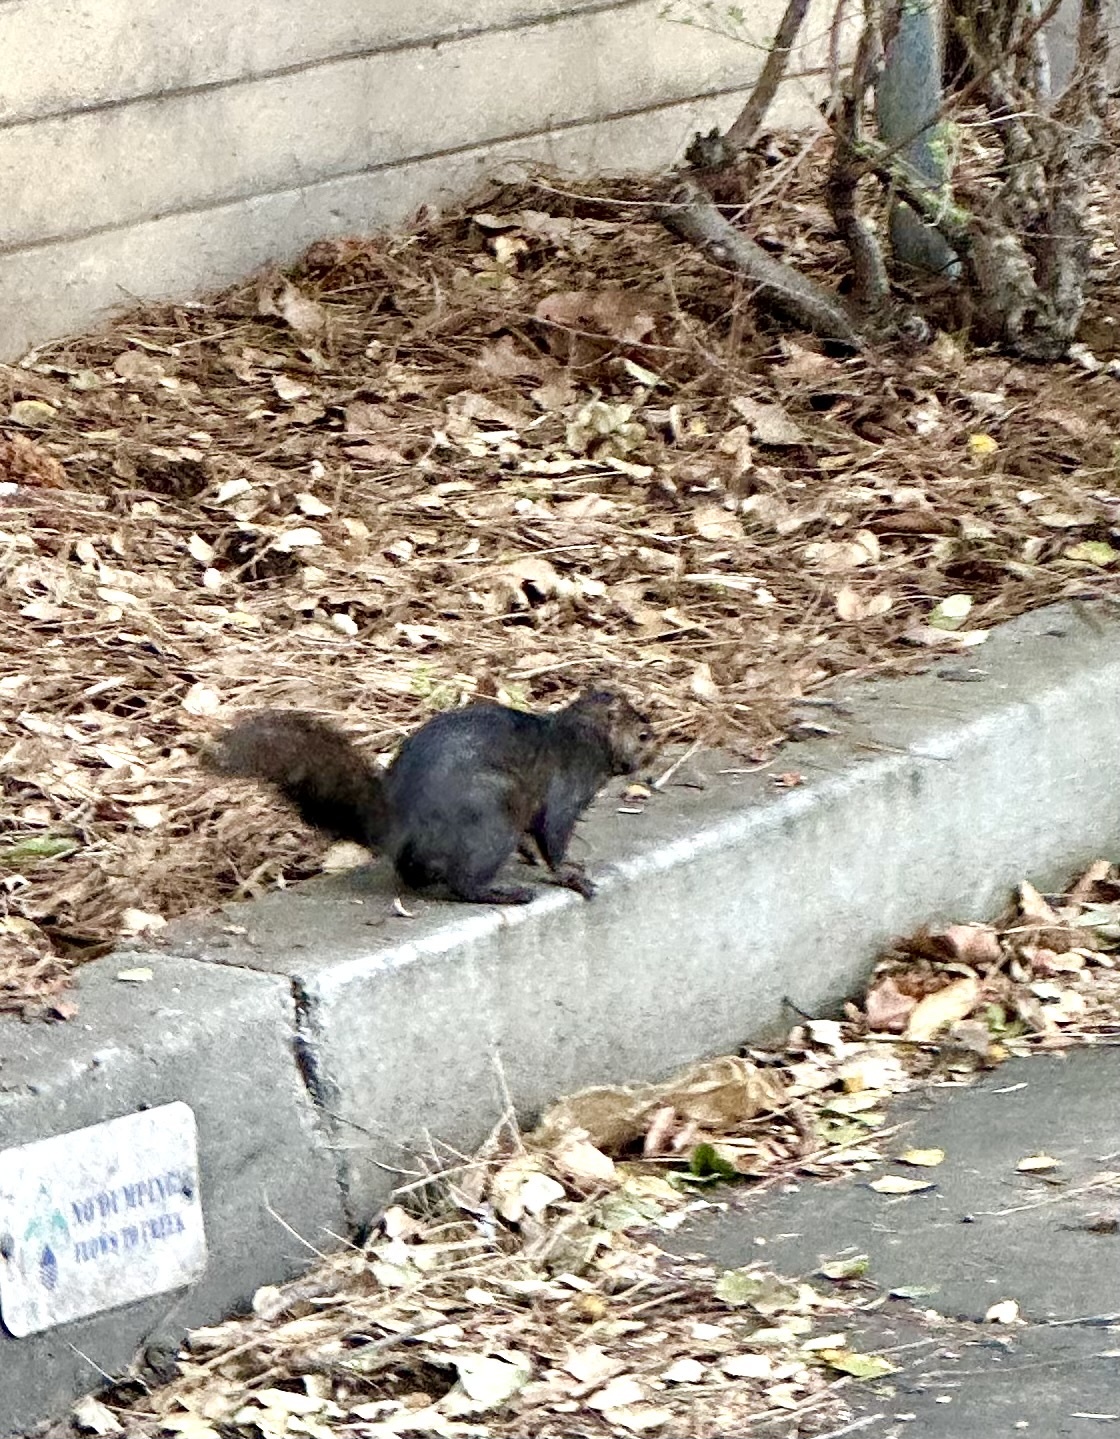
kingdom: Animalia
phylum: Chordata
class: Mammalia
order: Rodentia
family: Sciuridae
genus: Sciurus
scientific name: Sciurus carolinensis
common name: Eastern gray squirrel
